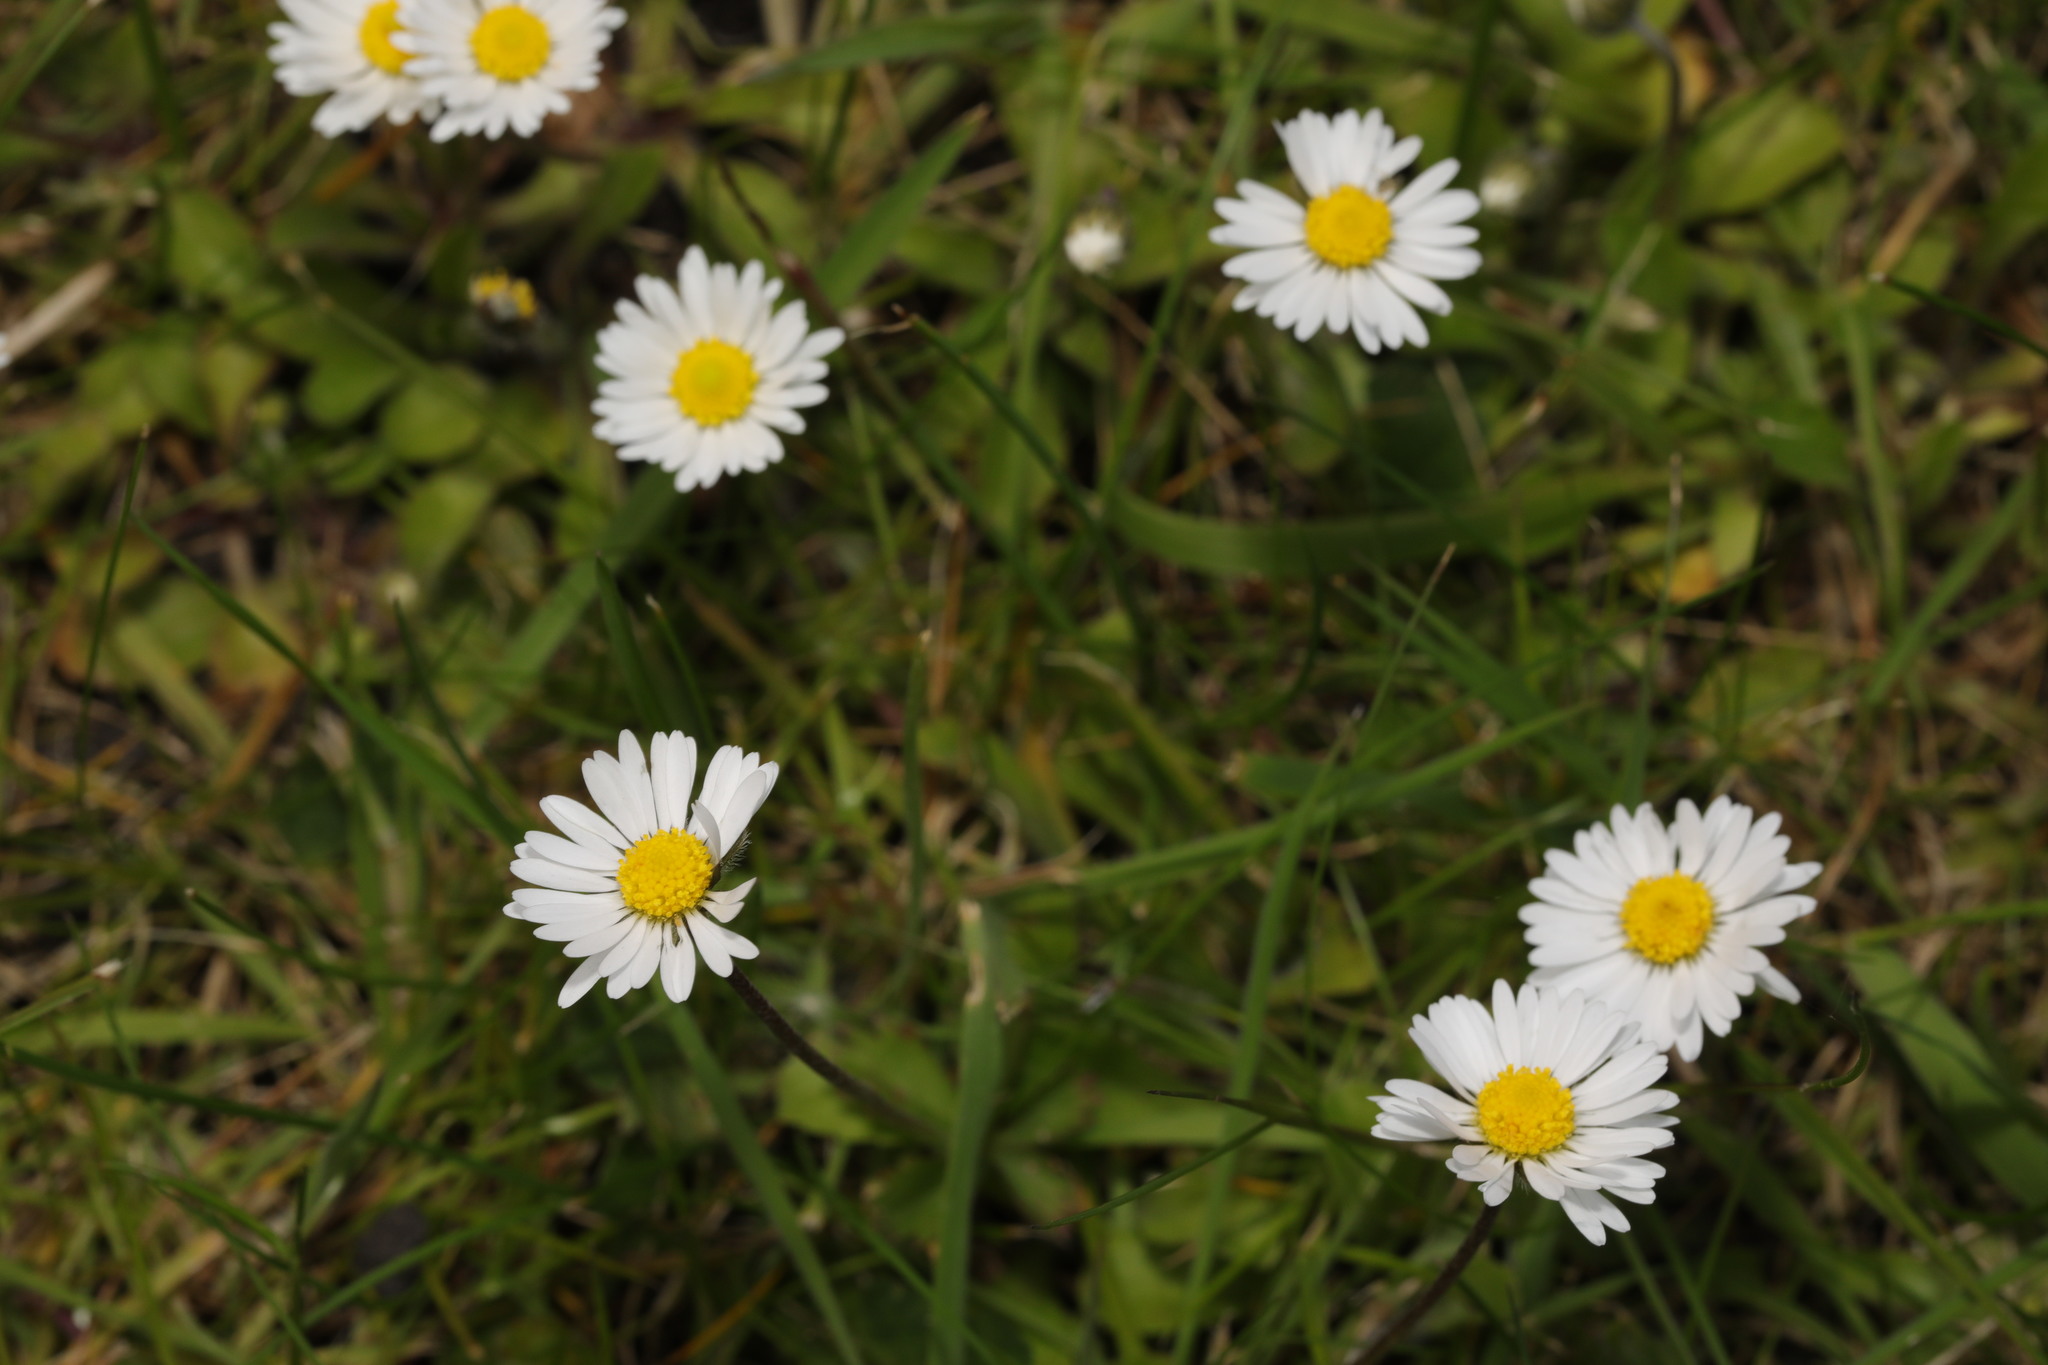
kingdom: Plantae
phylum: Tracheophyta
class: Magnoliopsida
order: Asterales
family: Asteraceae
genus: Bellis
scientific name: Bellis perennis
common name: Lawndaisy
